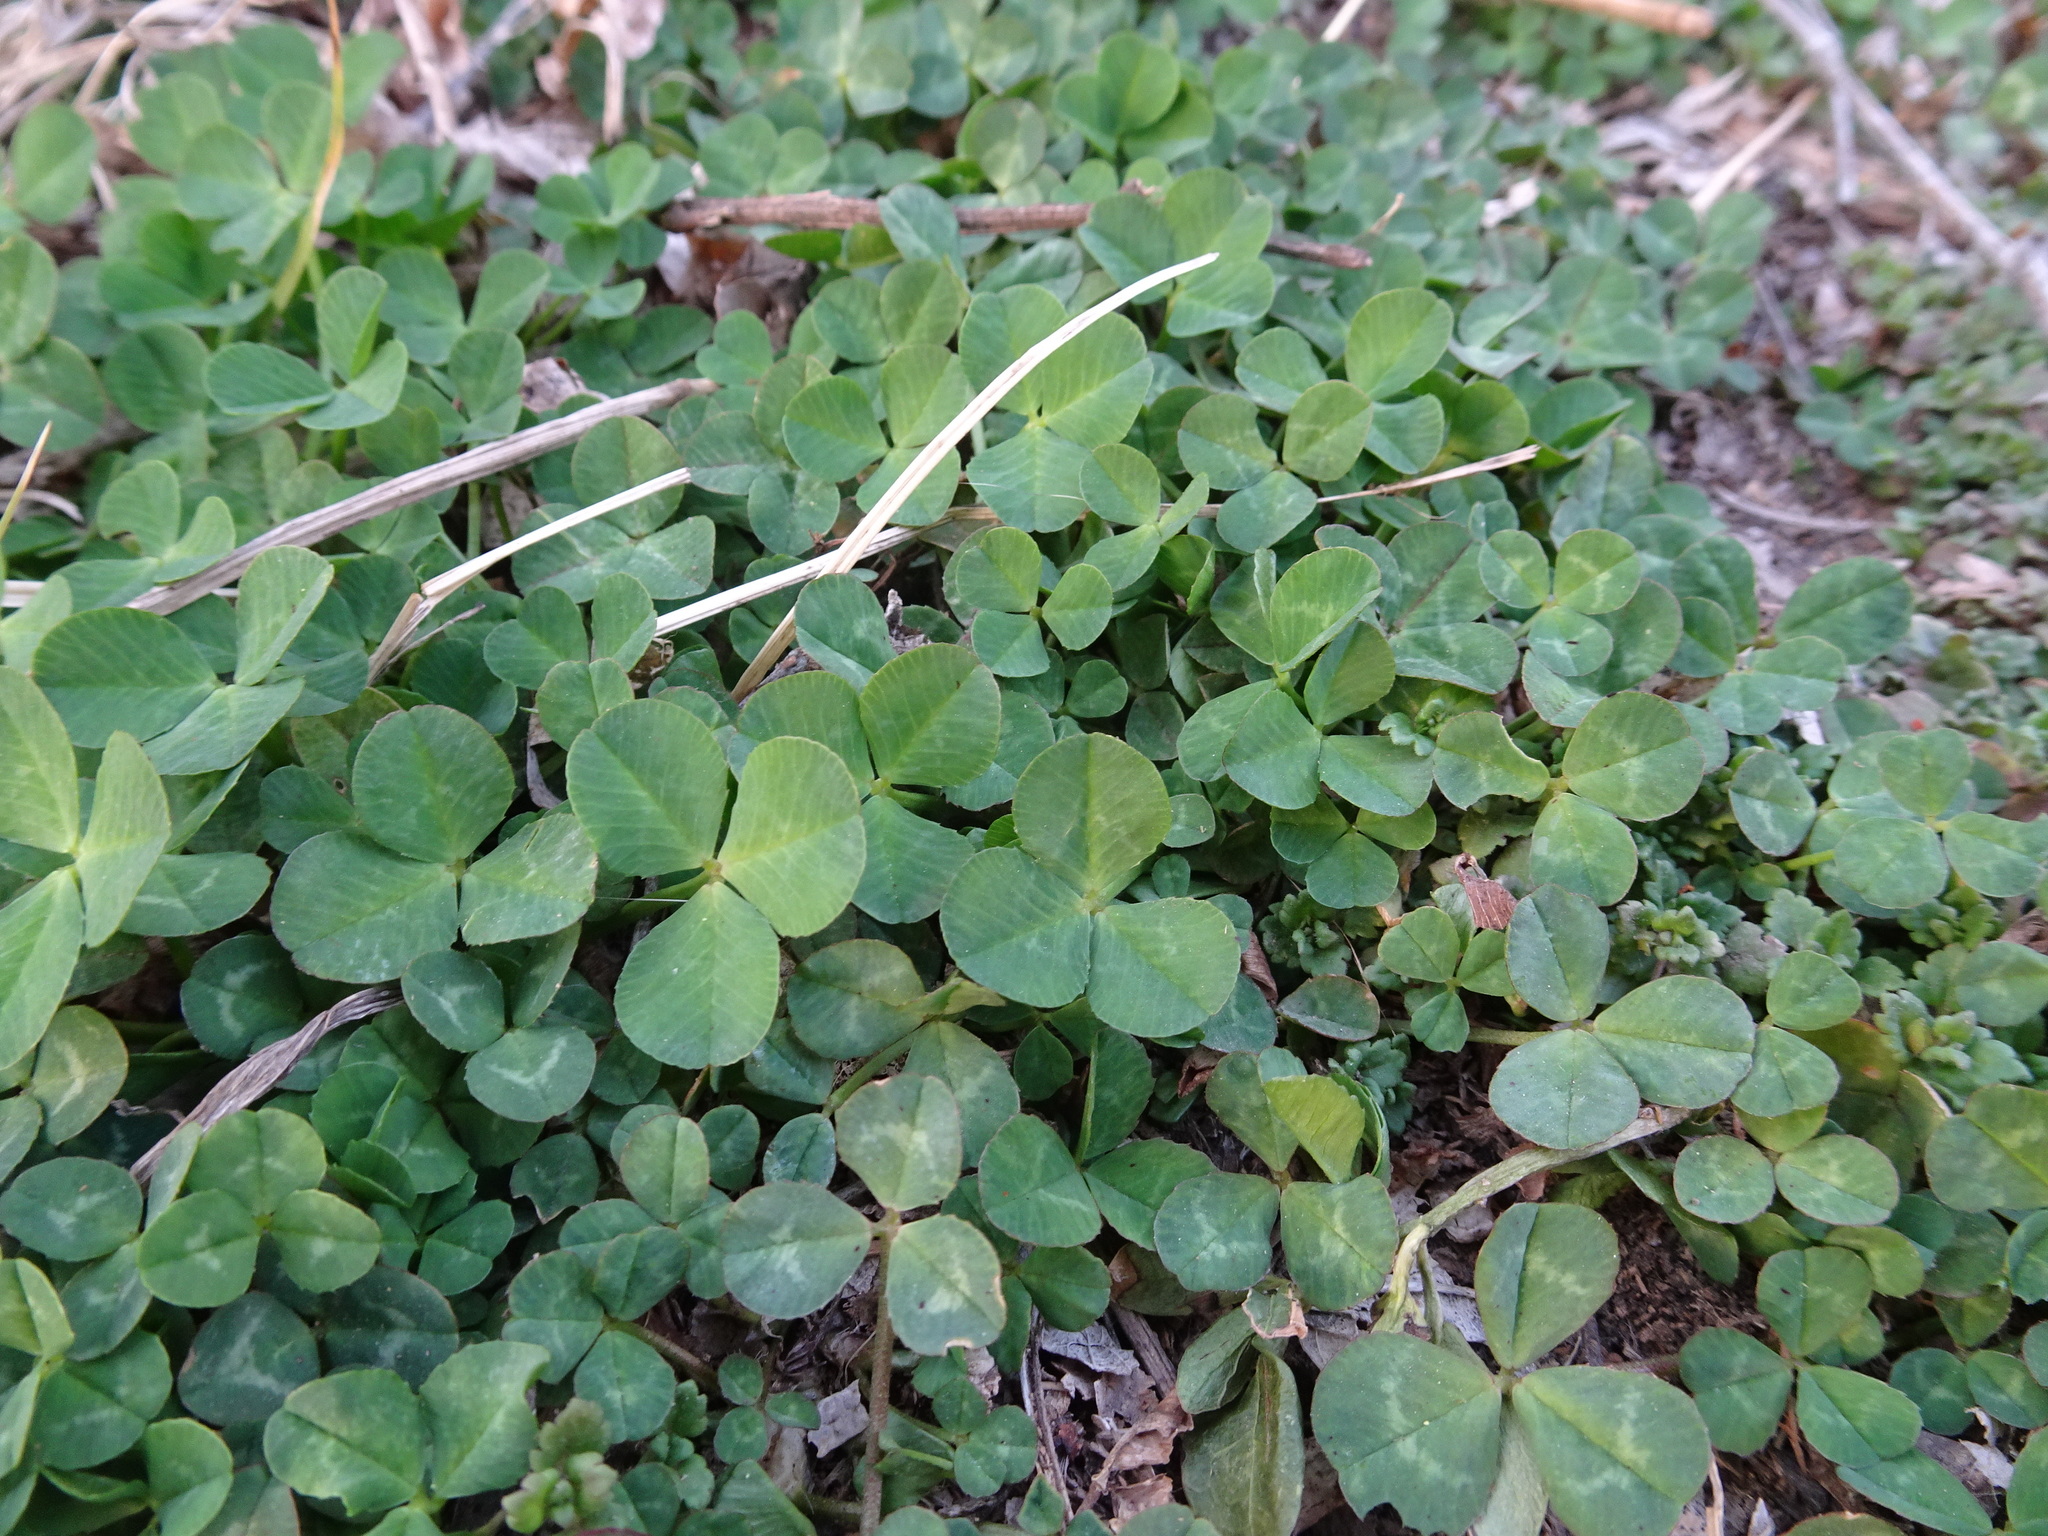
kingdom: Plantae
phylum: Tracheophyta
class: Magnoliopsida
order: Fabales
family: Fabaceae
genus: Trifolium
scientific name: Trifolium repens
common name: White clover
